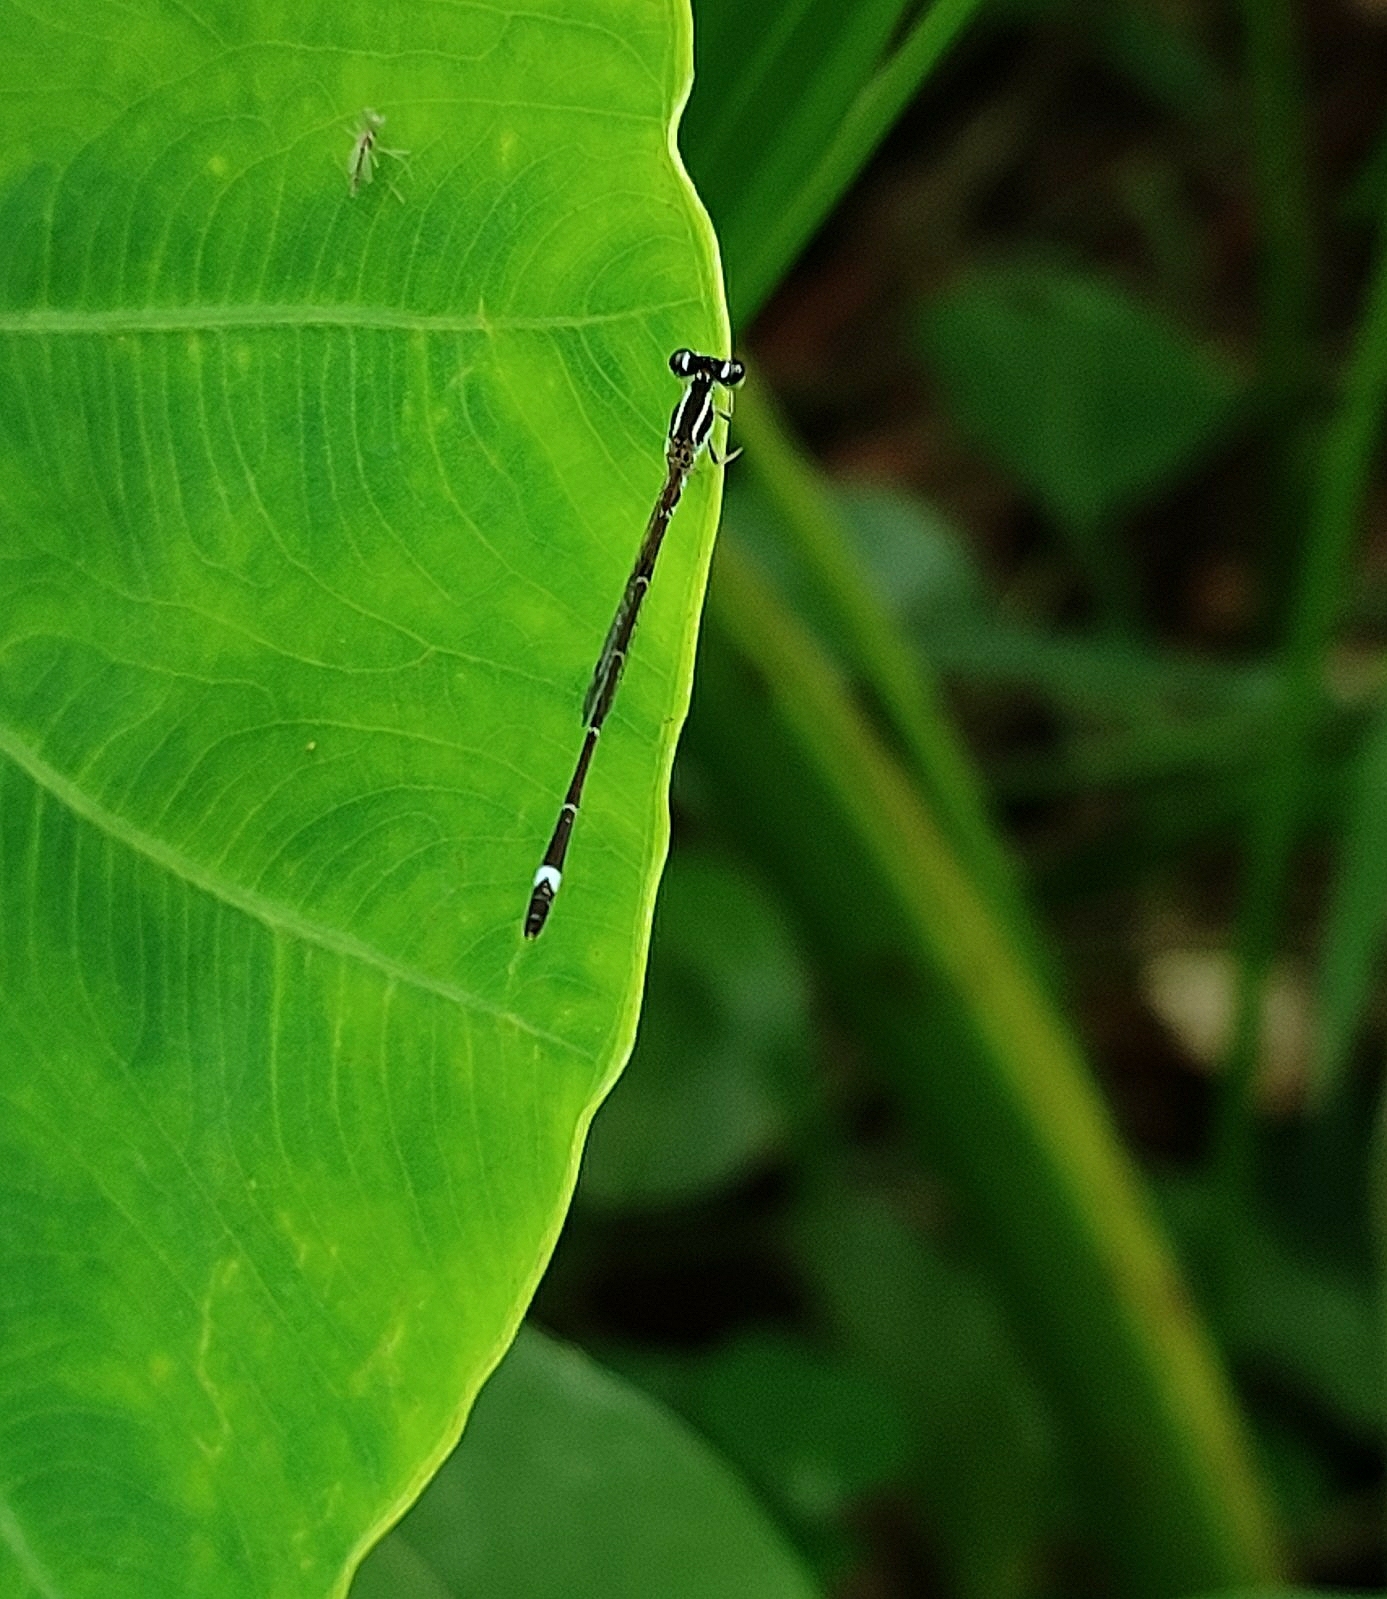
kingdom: Animalia
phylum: Arthropoda
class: Insecta
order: Odonata
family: Coenagrionidae
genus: Mortonagrion
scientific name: Mortonagrion varralli
